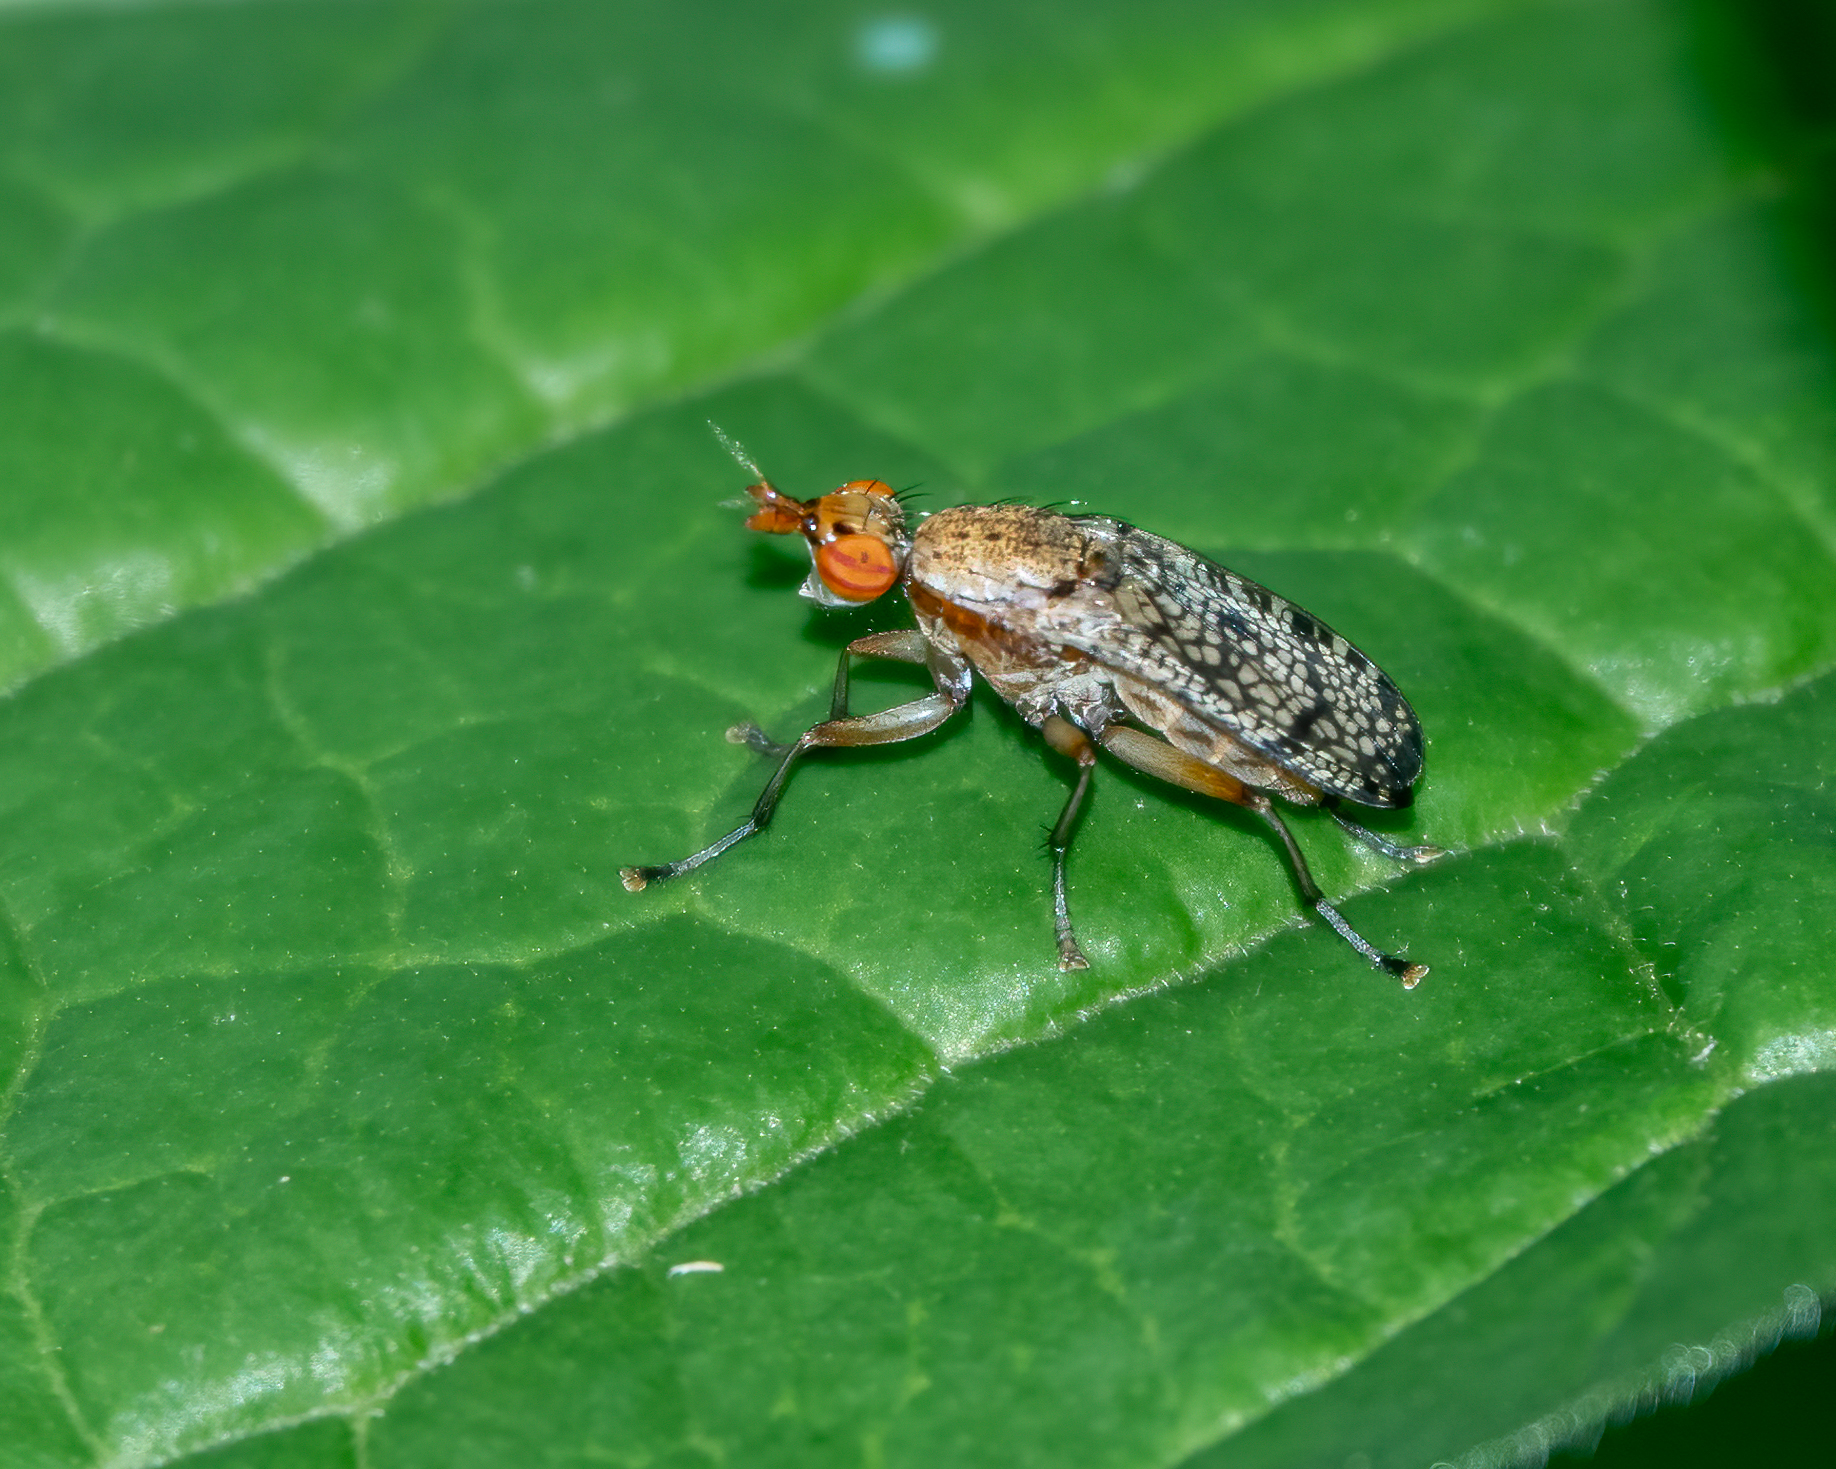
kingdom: Animalia
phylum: Arthropoda
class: Insecta
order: Diptera
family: Sciomyzidae
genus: Euthycera
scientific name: Euthycera flavescens
